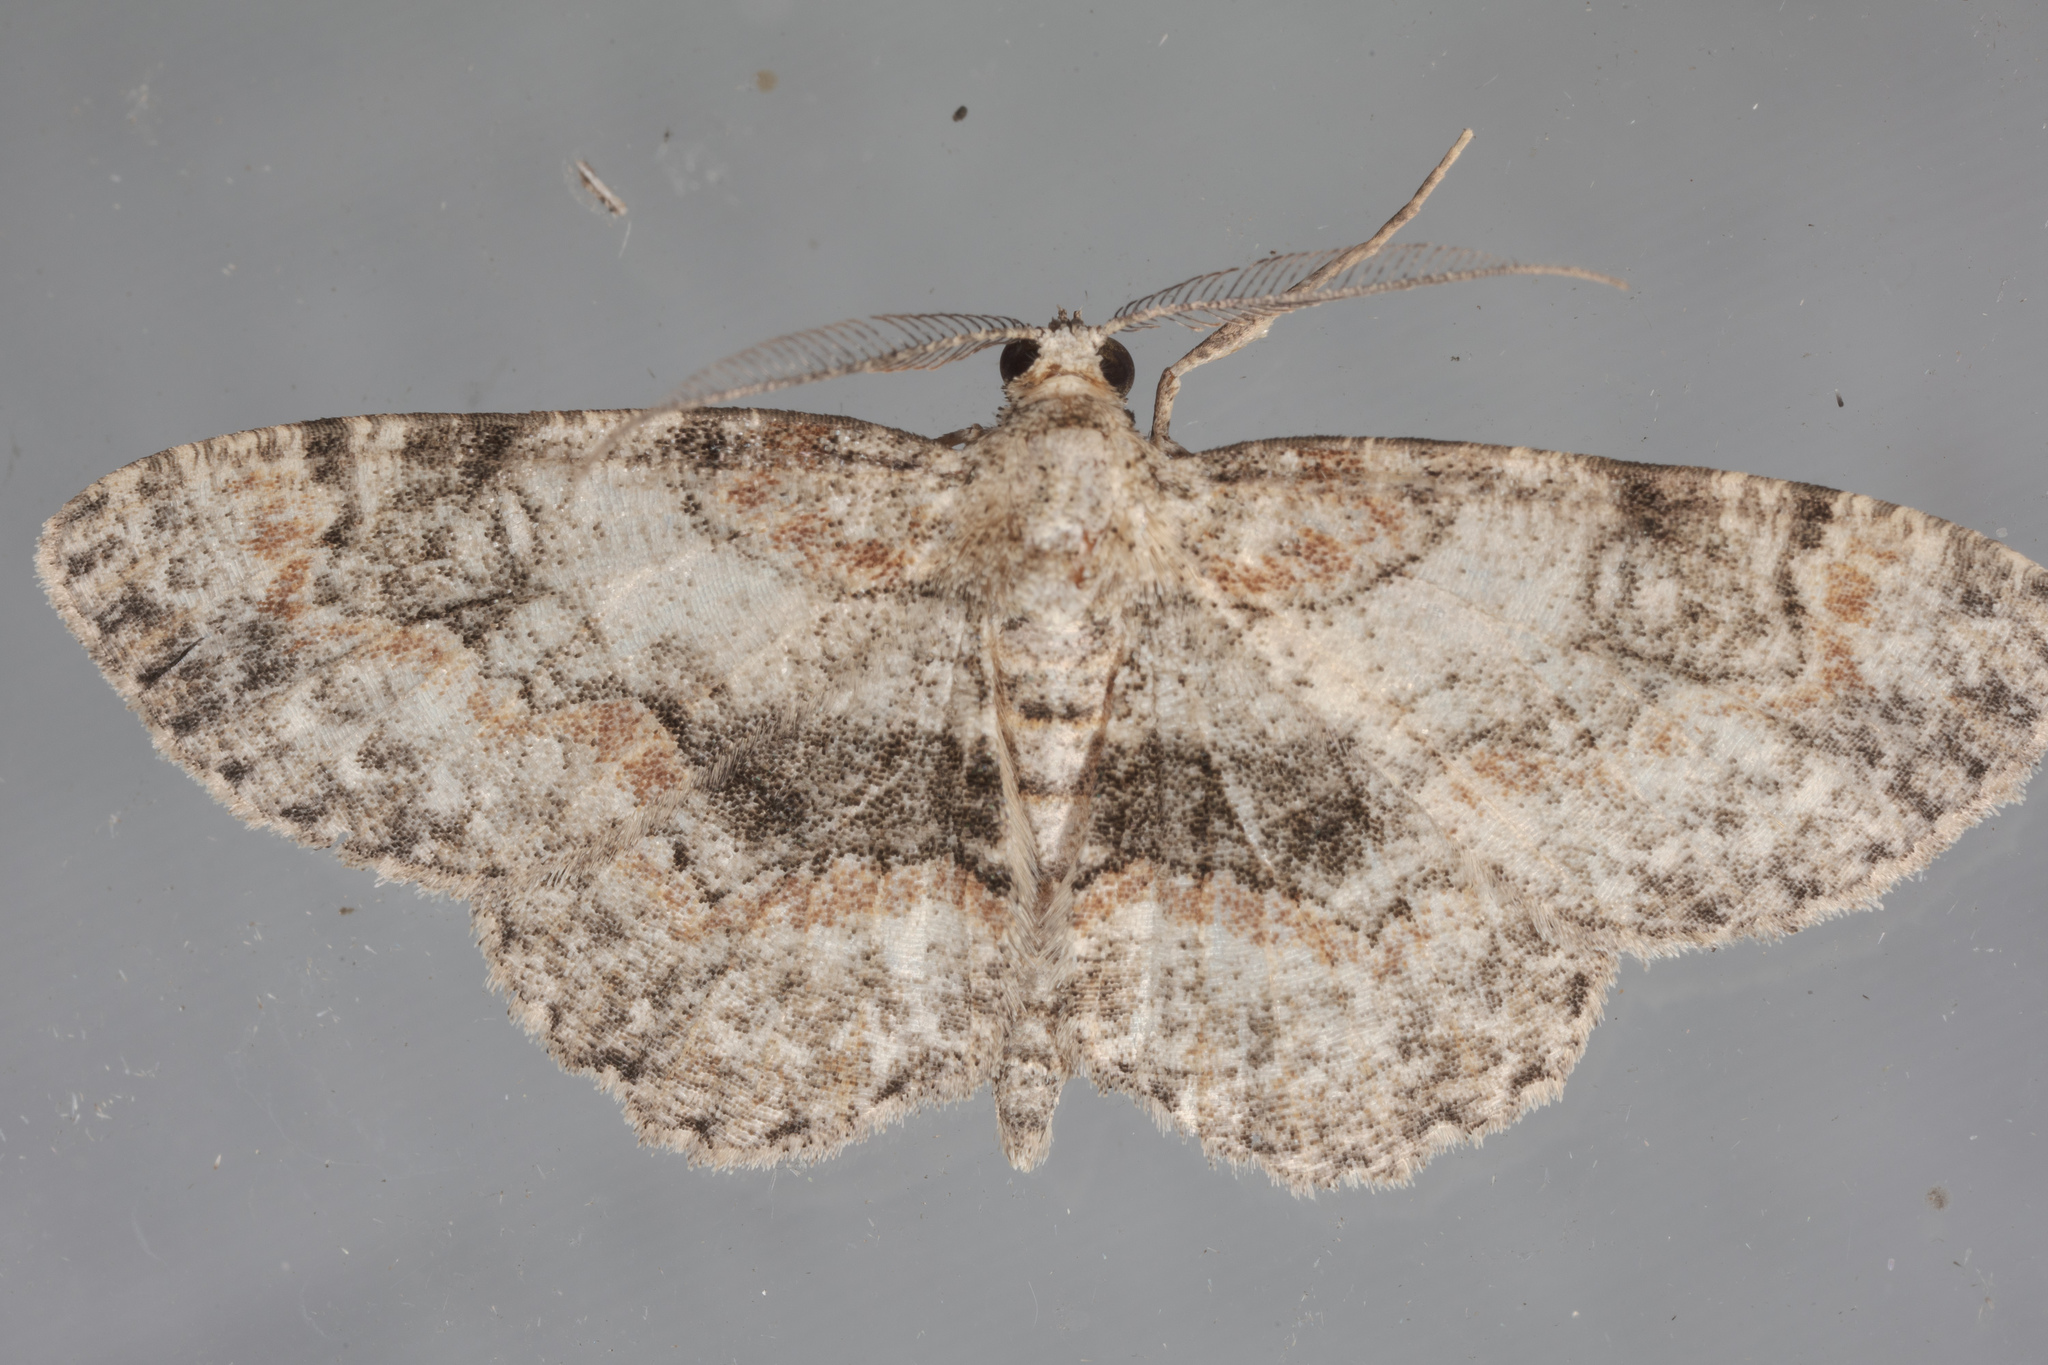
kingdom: Animalia
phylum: Arthropoda
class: Insecta
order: Lepidoptera
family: Geometridae
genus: Iridopsis
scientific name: Iridopsis ephyraria
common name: Pale-winged gray
